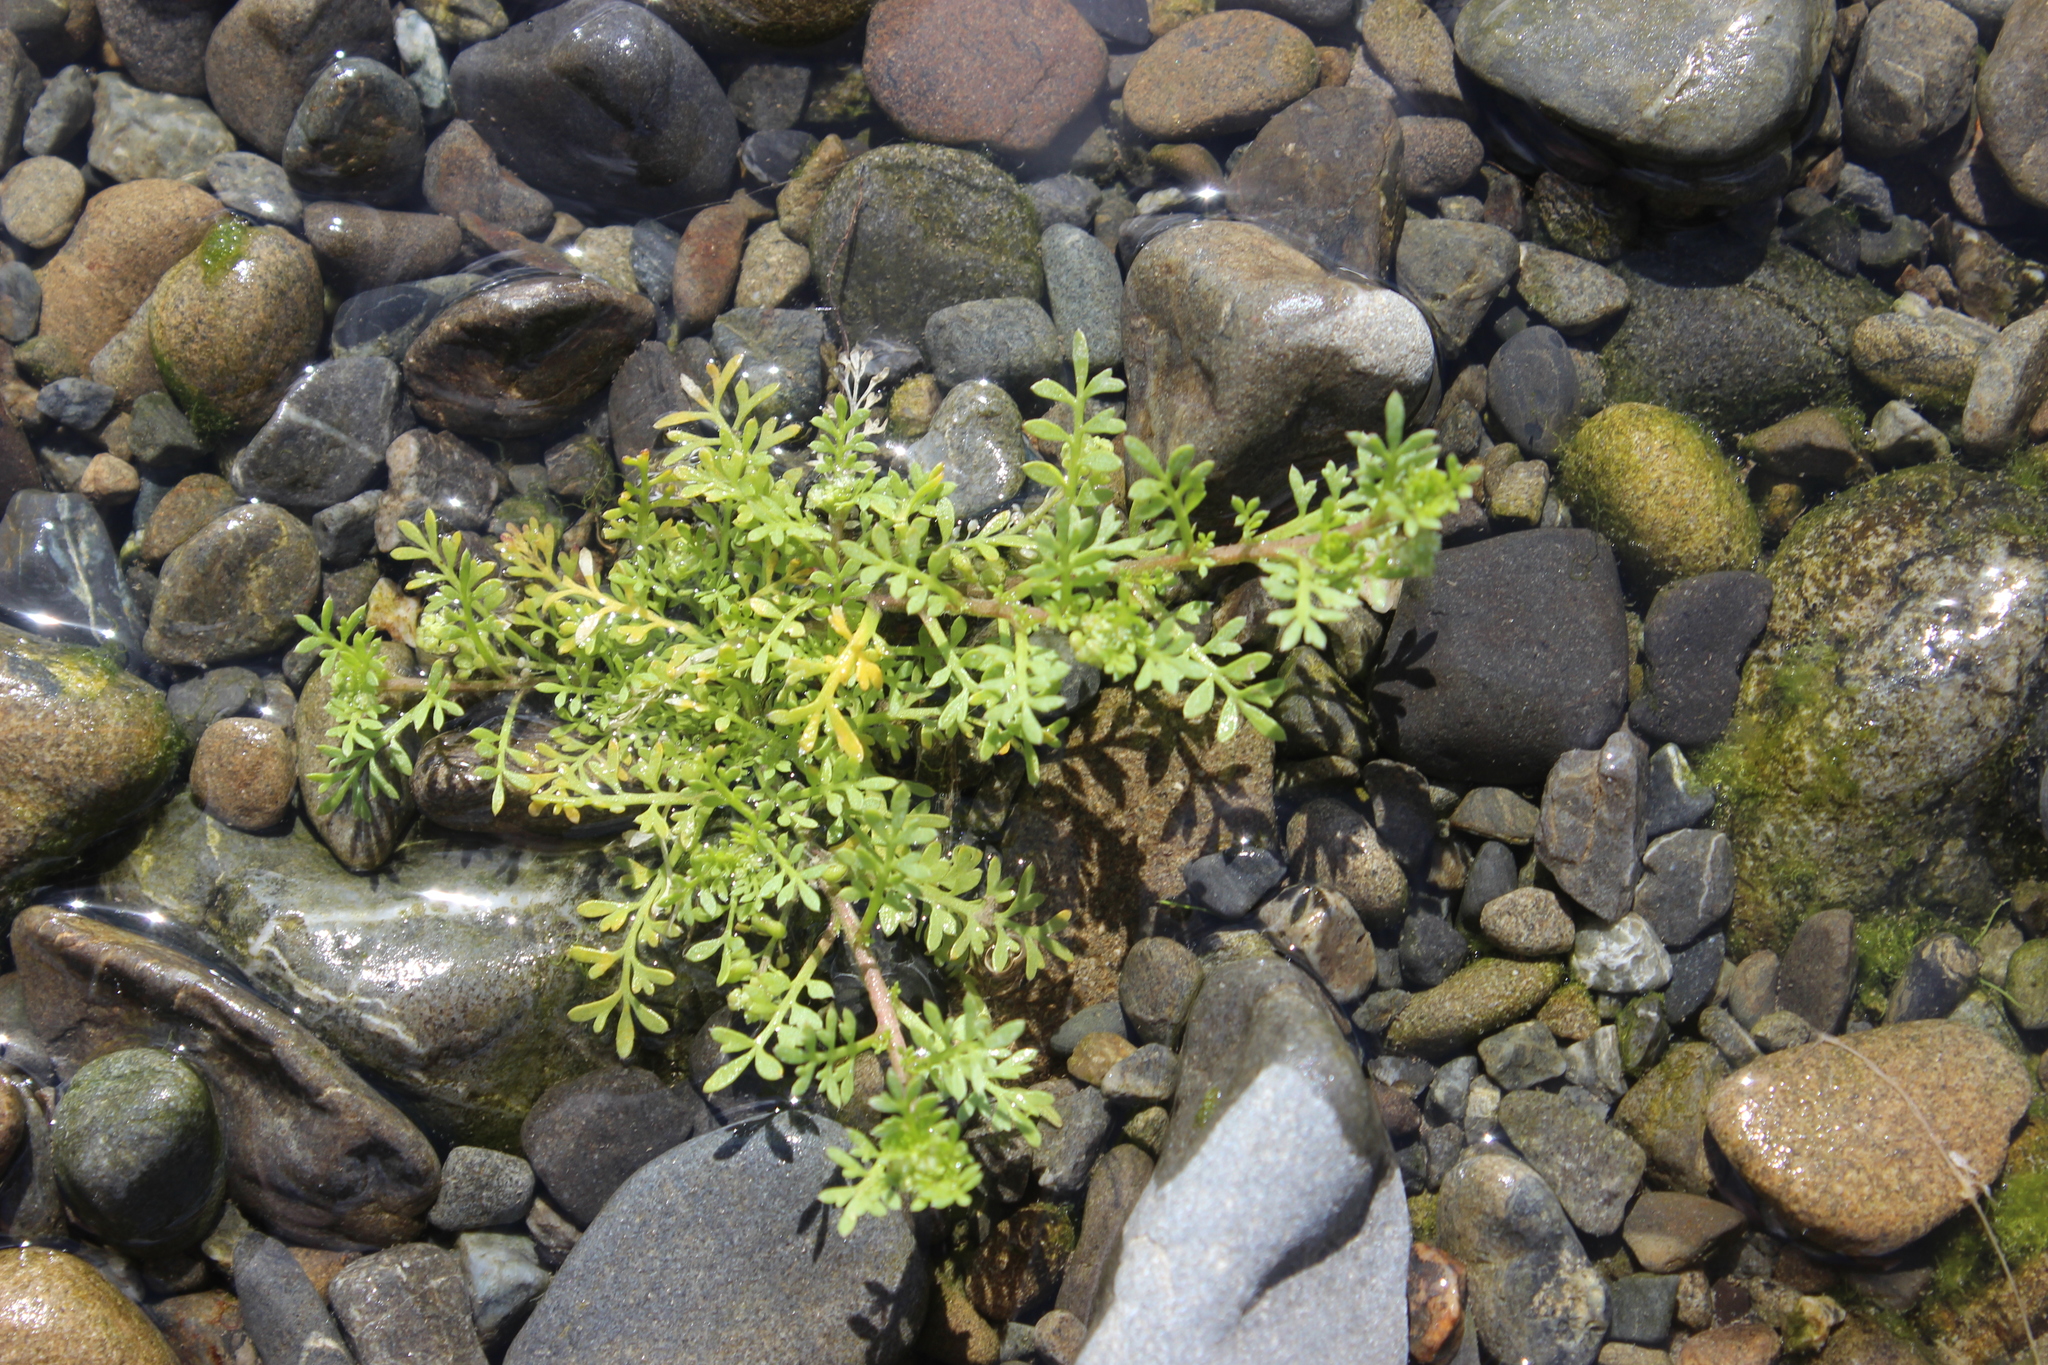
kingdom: Plantae
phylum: Tracheophyta
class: Magnoliopsida
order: Asterales
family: Asteraceae
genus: Cotula
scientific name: Cotula australis
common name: Australian waterbuttons
